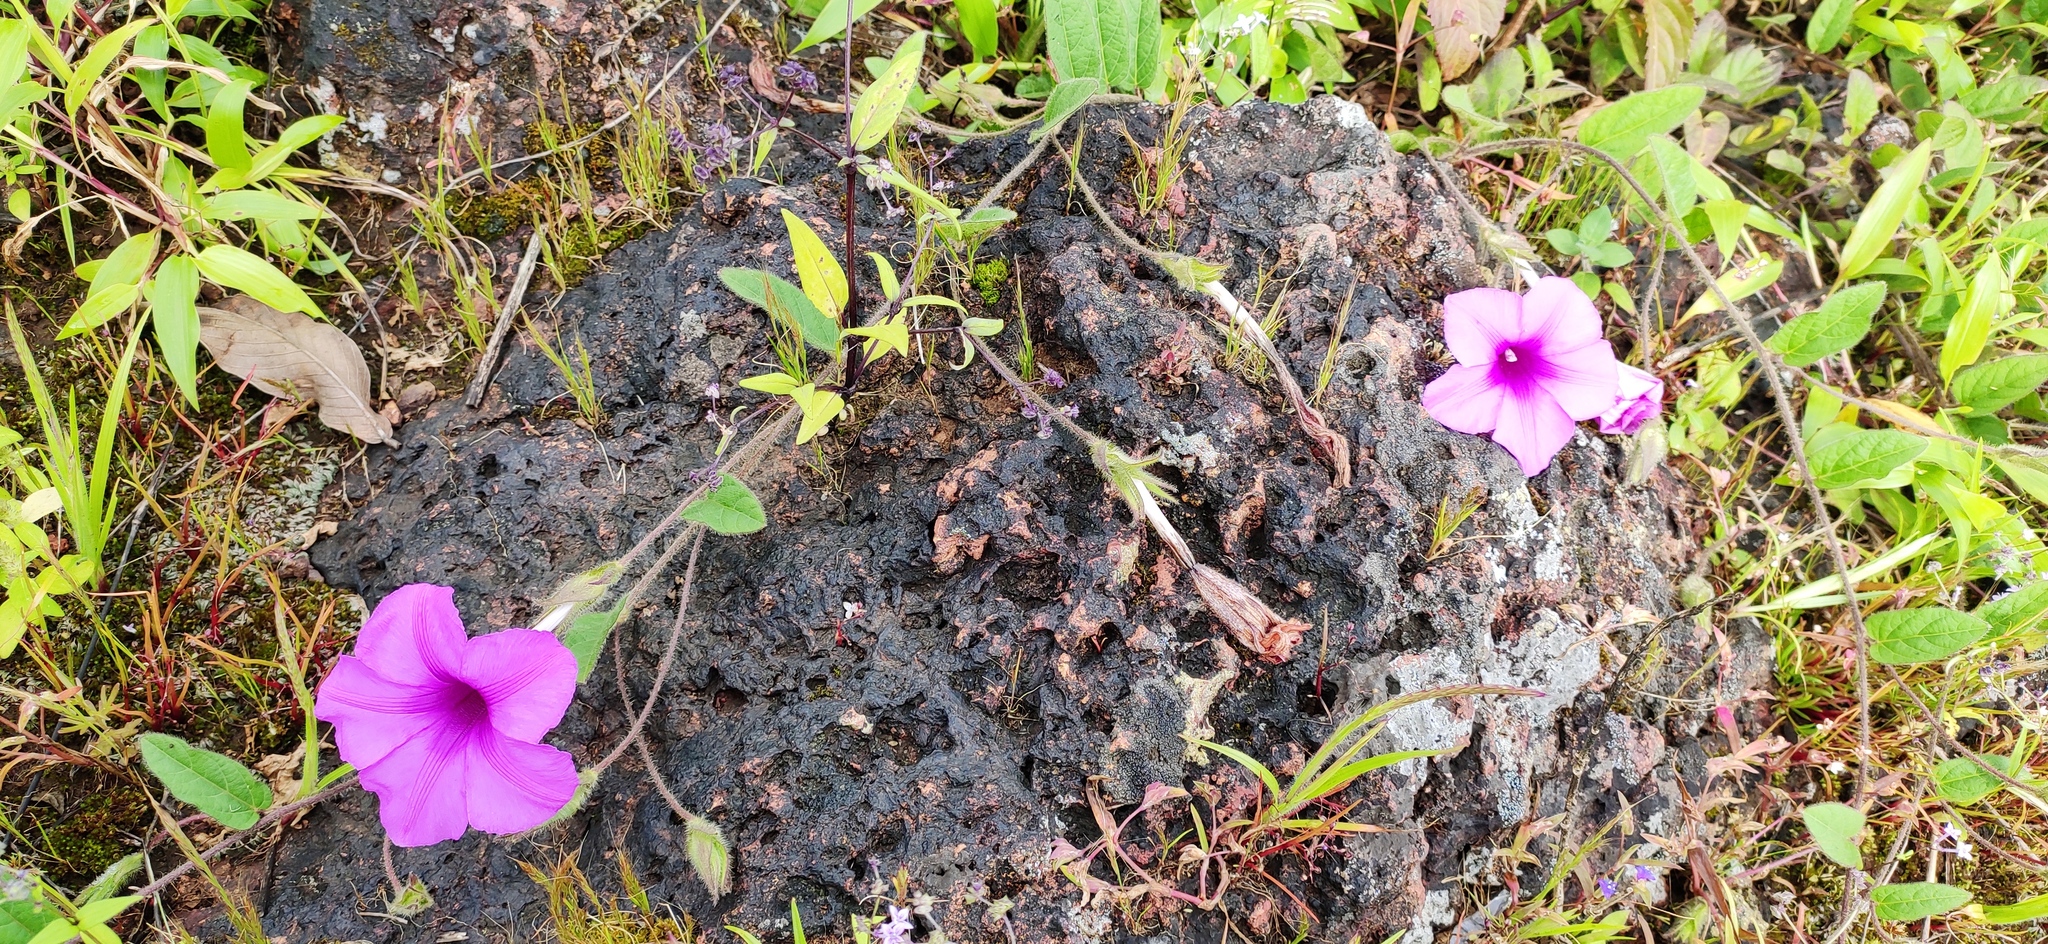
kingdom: Plantae
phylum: Tracheophyta
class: Magnoliopsida
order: Solanales
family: Convolvulaceae
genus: Ipomoea
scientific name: Ipomoea barlerioides
